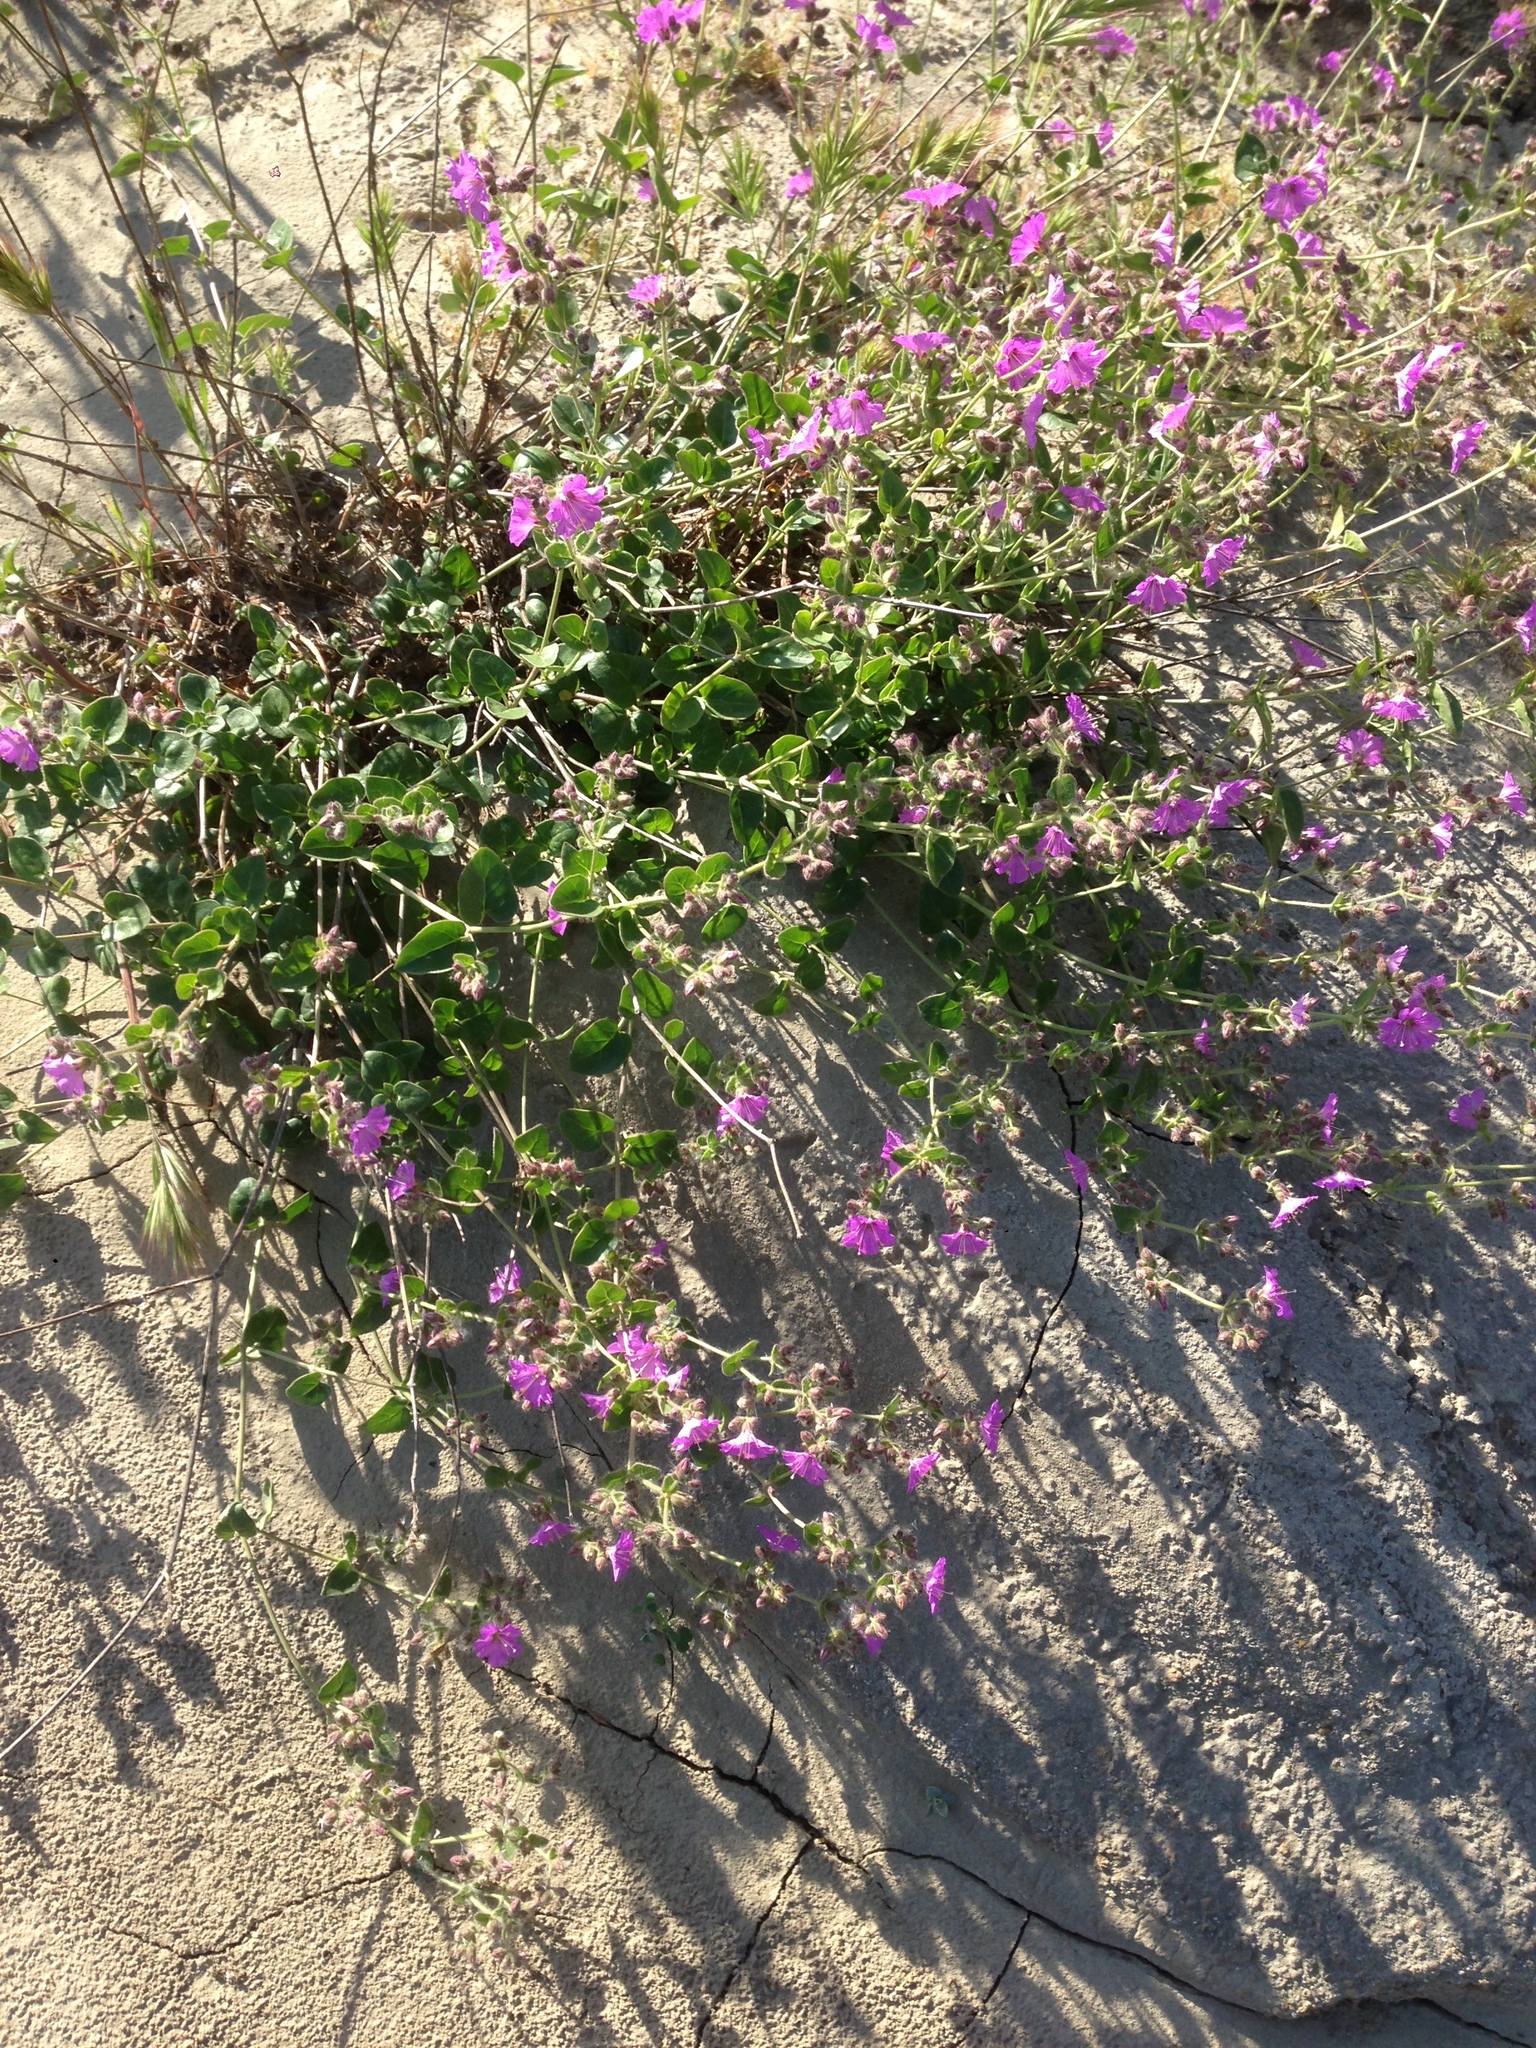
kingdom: Plantae
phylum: Tracheophyta
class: Magnoliopsida
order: Caryophyllales
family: Nyctaginaceae
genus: Mirabilis
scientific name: Mirabilis laevis
